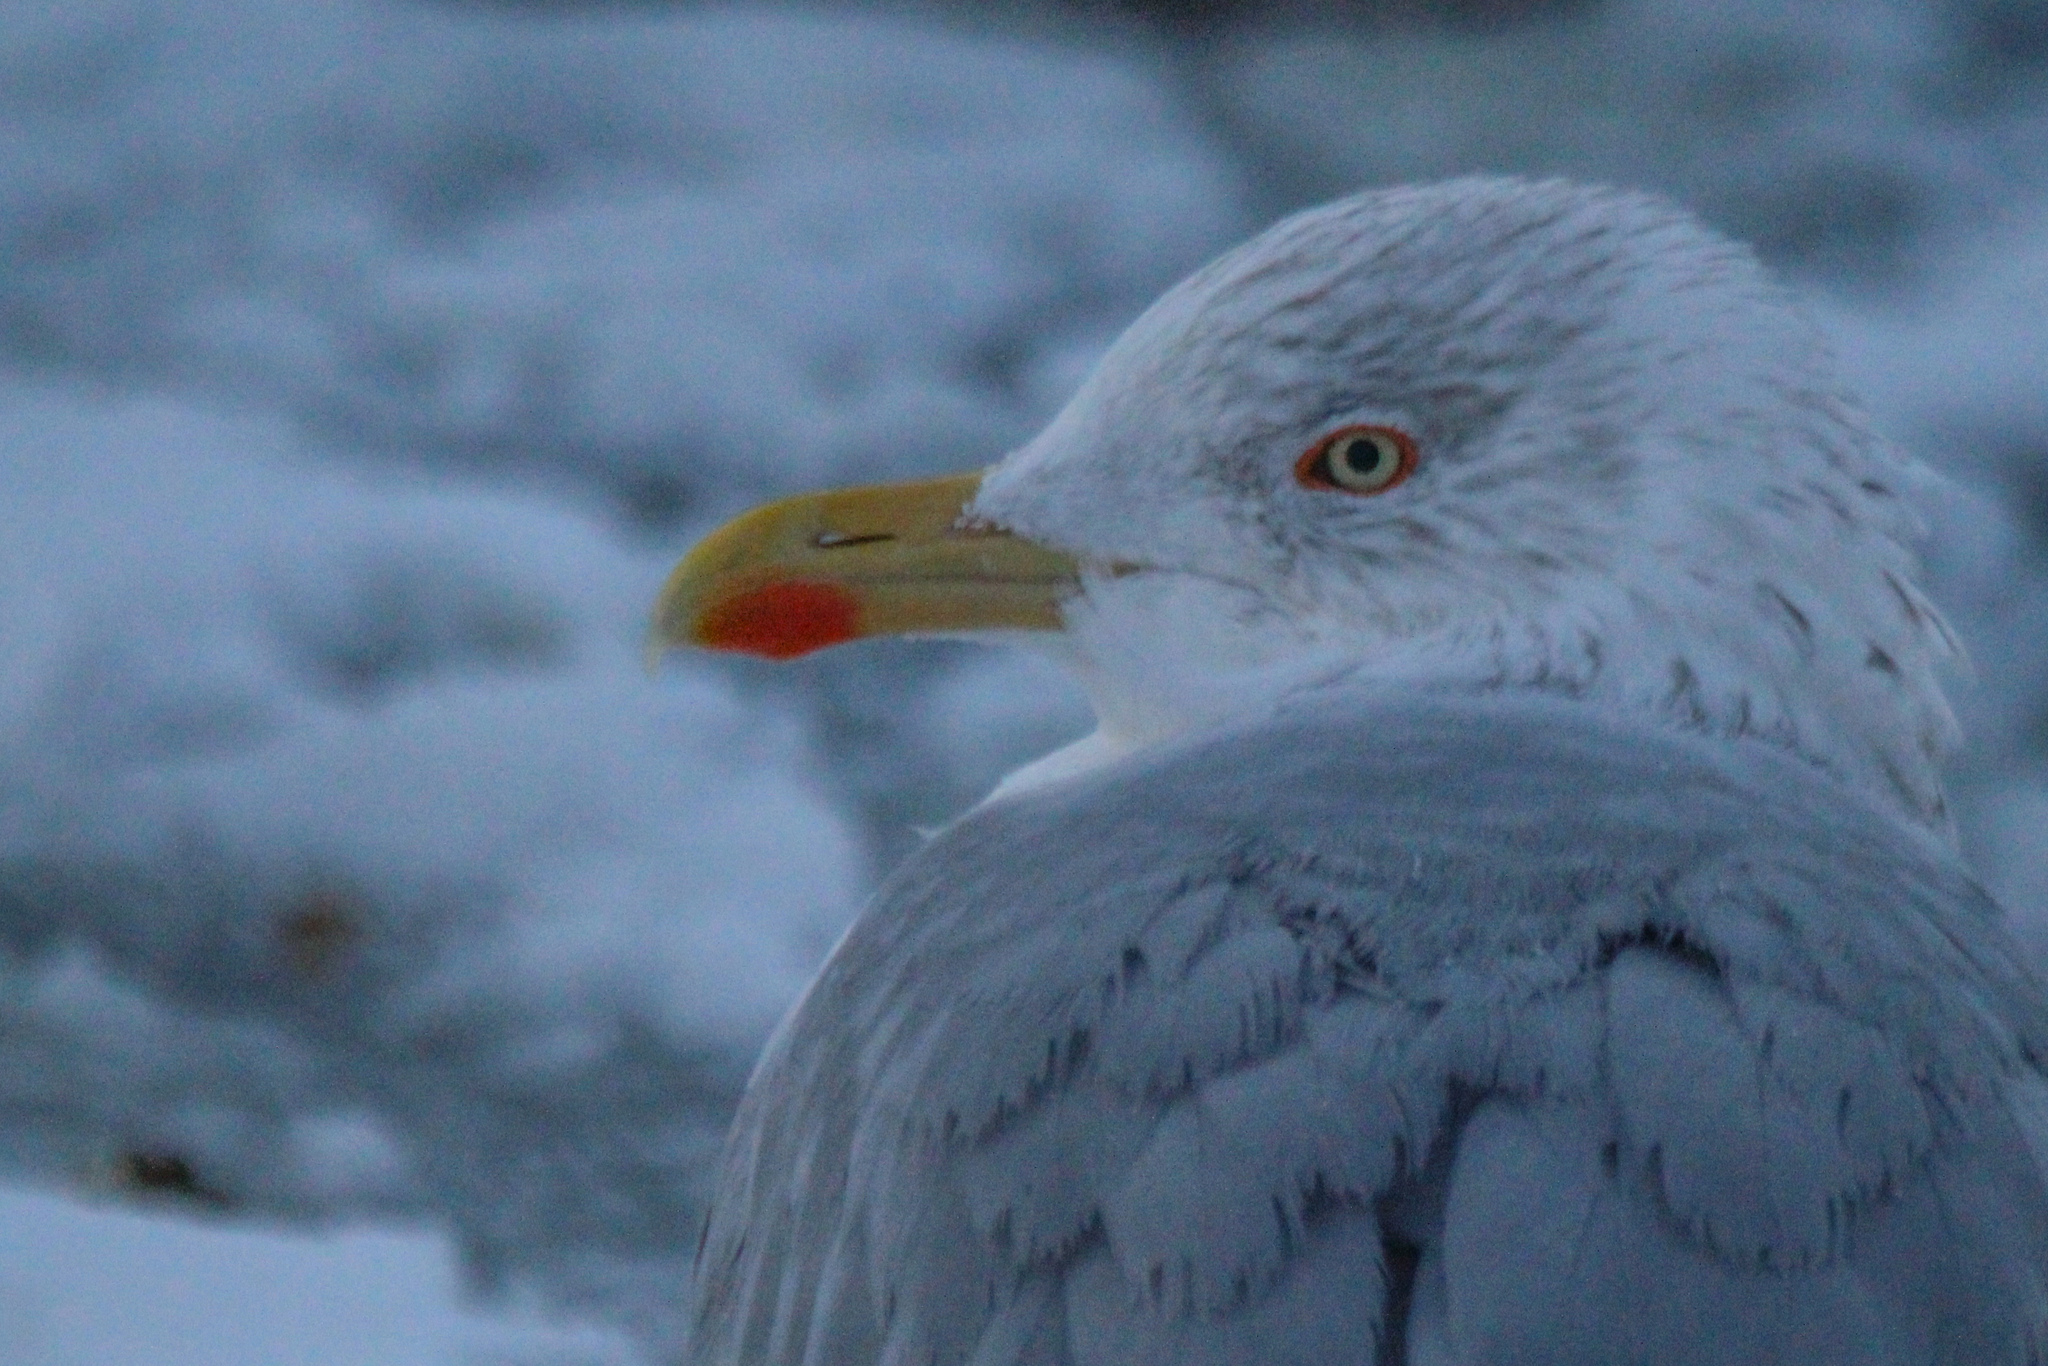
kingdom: Animalia
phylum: Chordata
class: Aves
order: Charadriiformes
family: Laridae
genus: Larus
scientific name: Larus argentatus
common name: Herring gull
